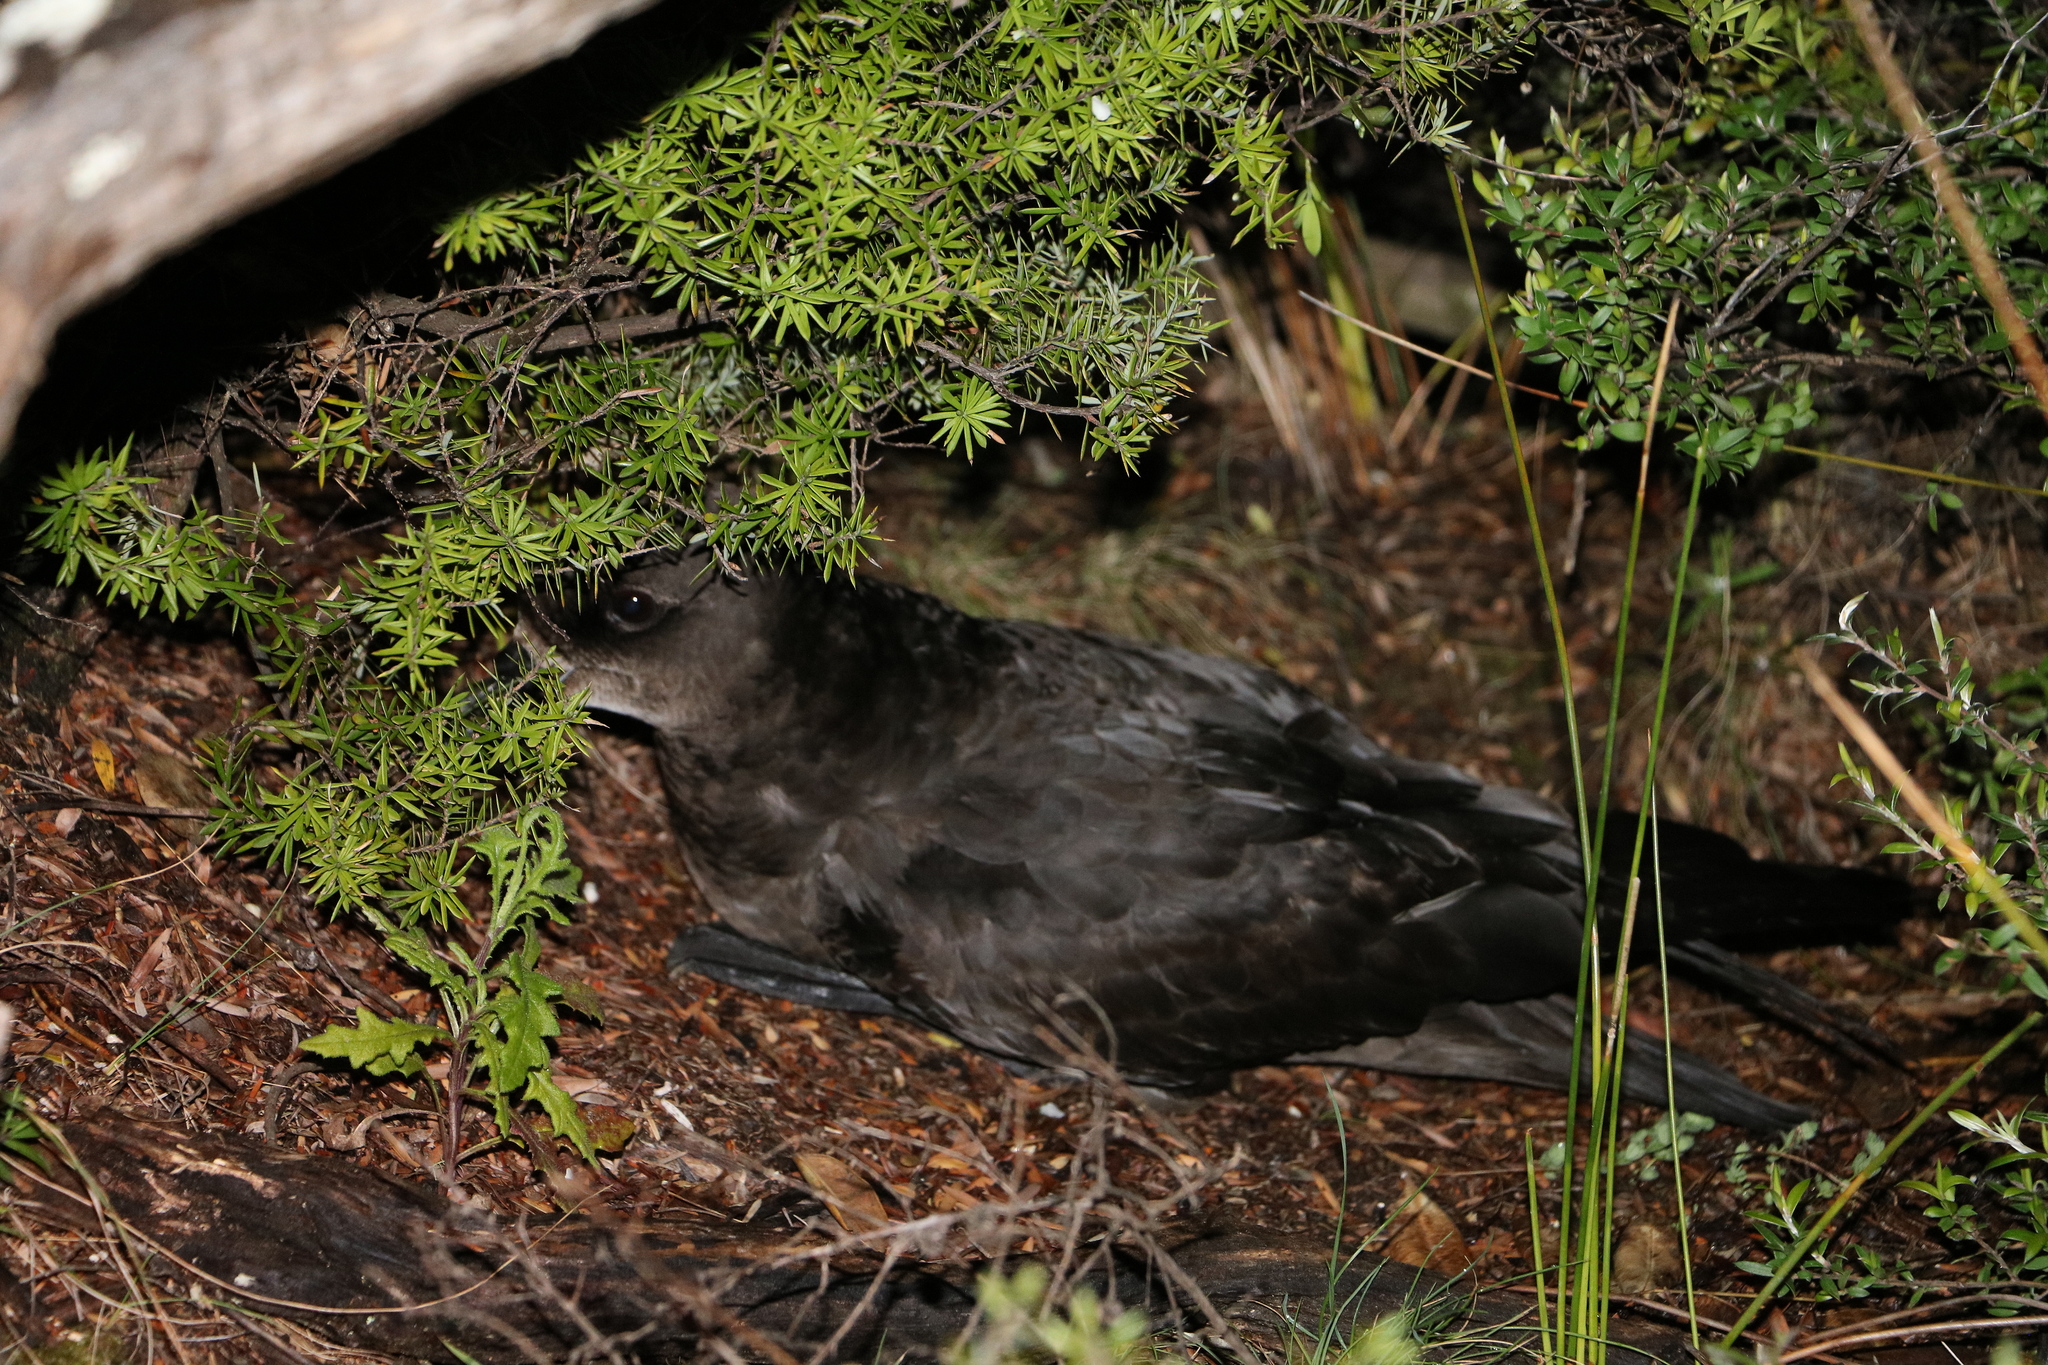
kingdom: Animalia
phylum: Chordata
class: Aves
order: Procellariiformes
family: Procellariidae
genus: Pterodroma
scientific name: Pterodroma macroptera
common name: Great-winged petrel
